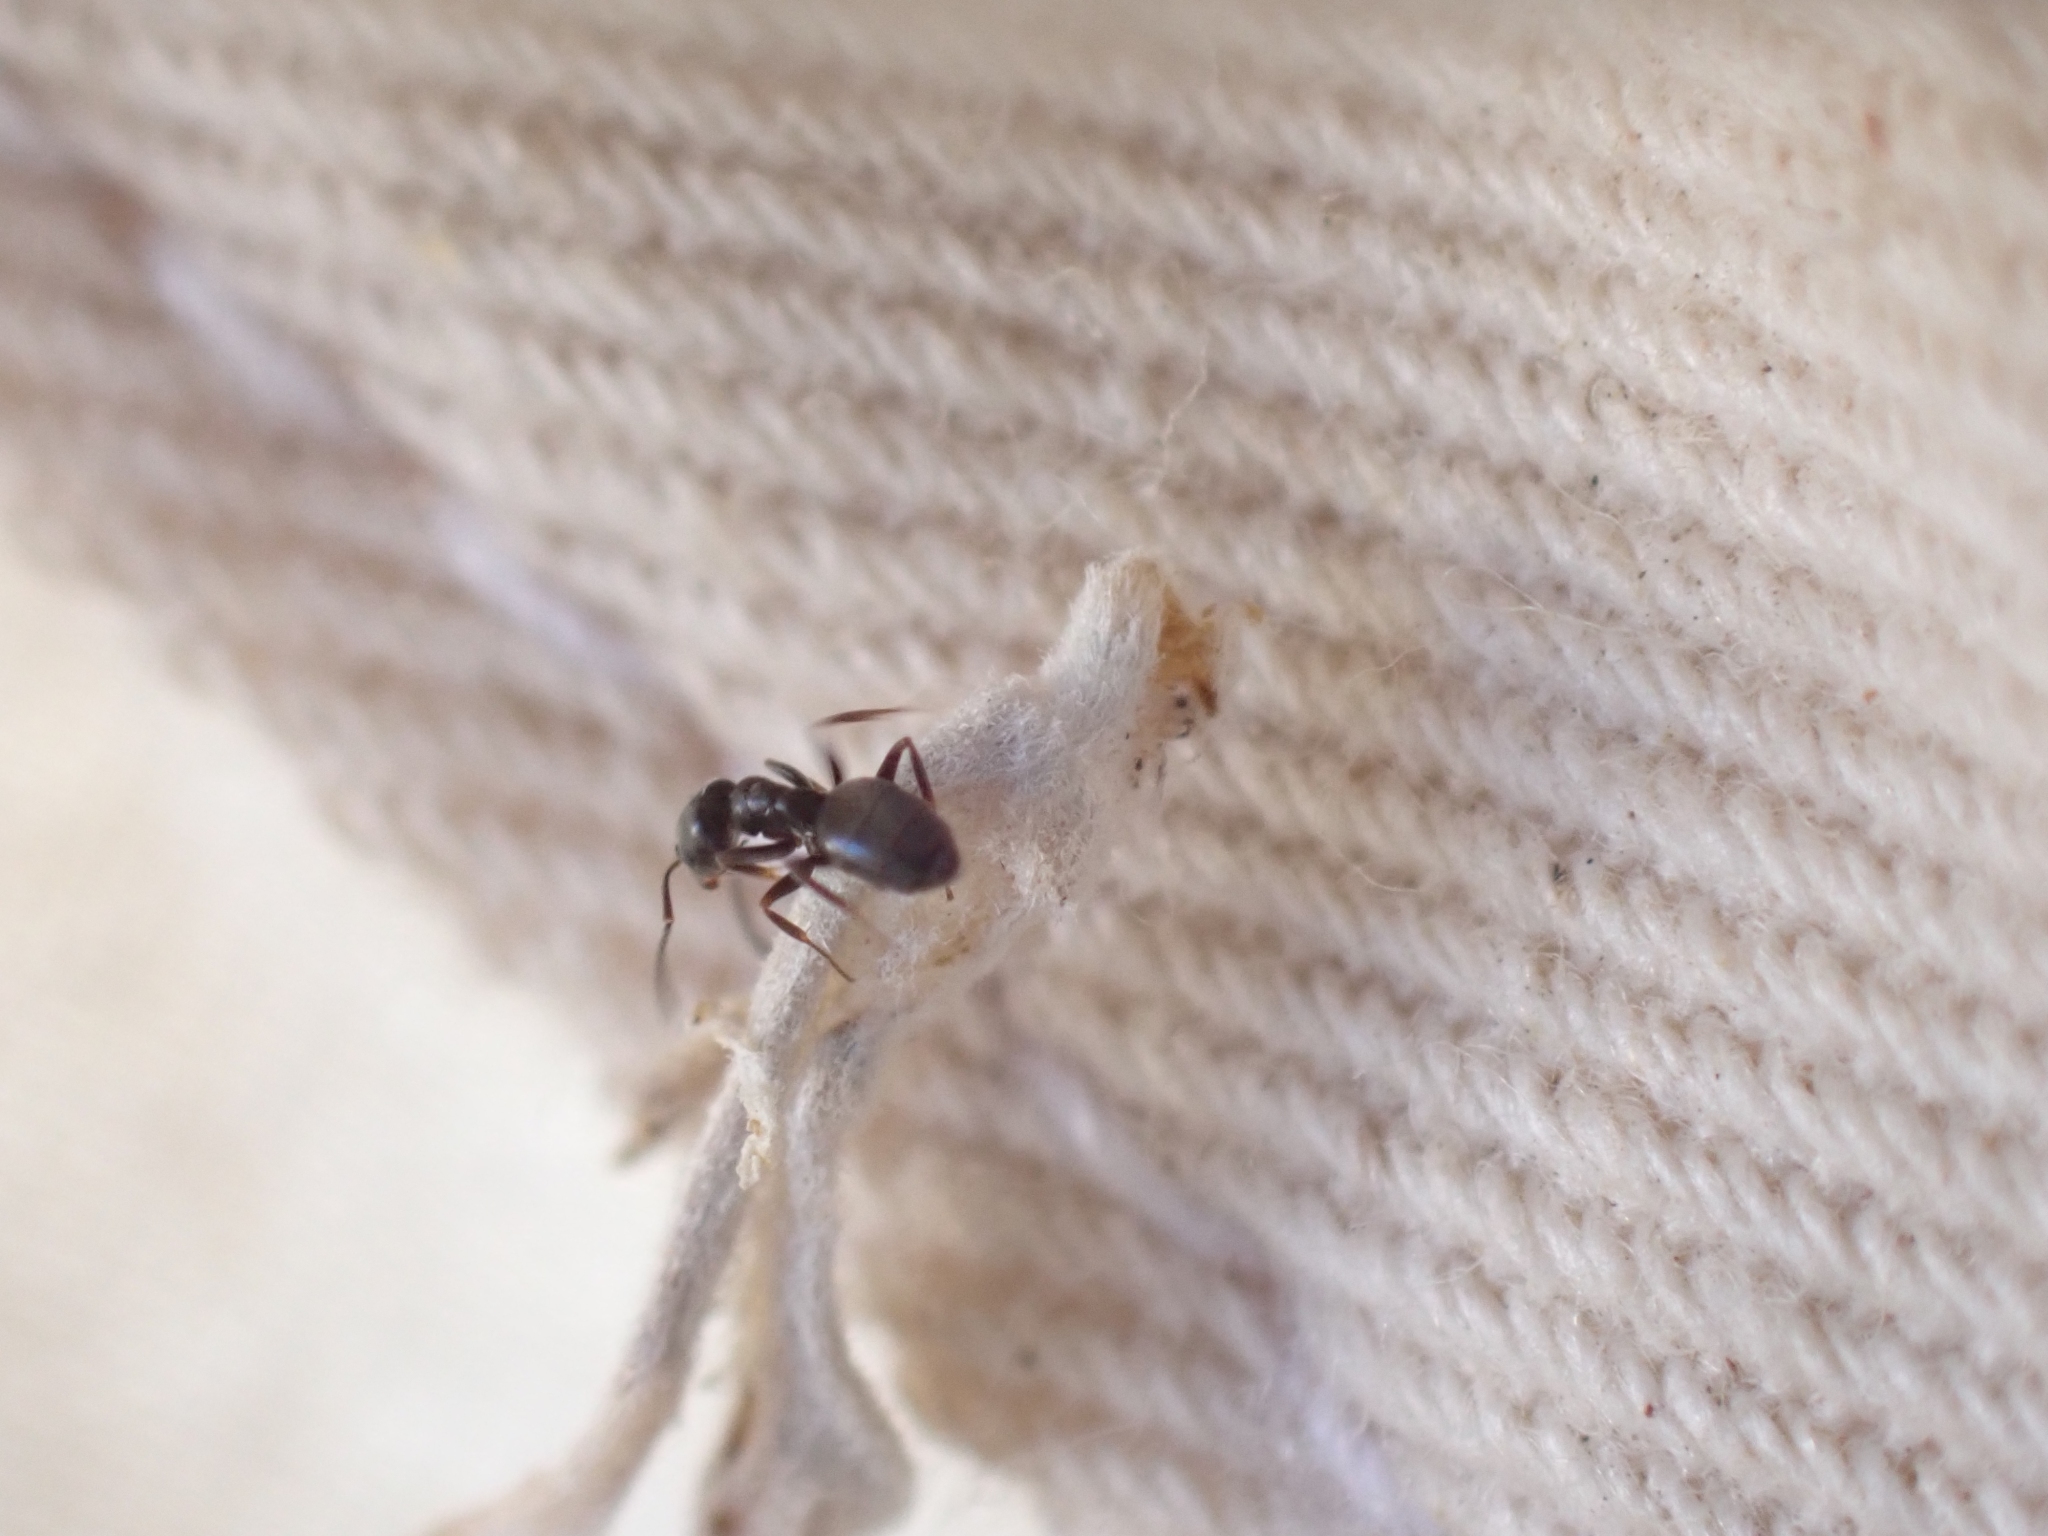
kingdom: Animalia
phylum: Arthropoda
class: Insecta
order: Hymenoptera
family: Formicidae
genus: Tapinoma
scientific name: Tapinoma sessile
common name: Odorous house ant
